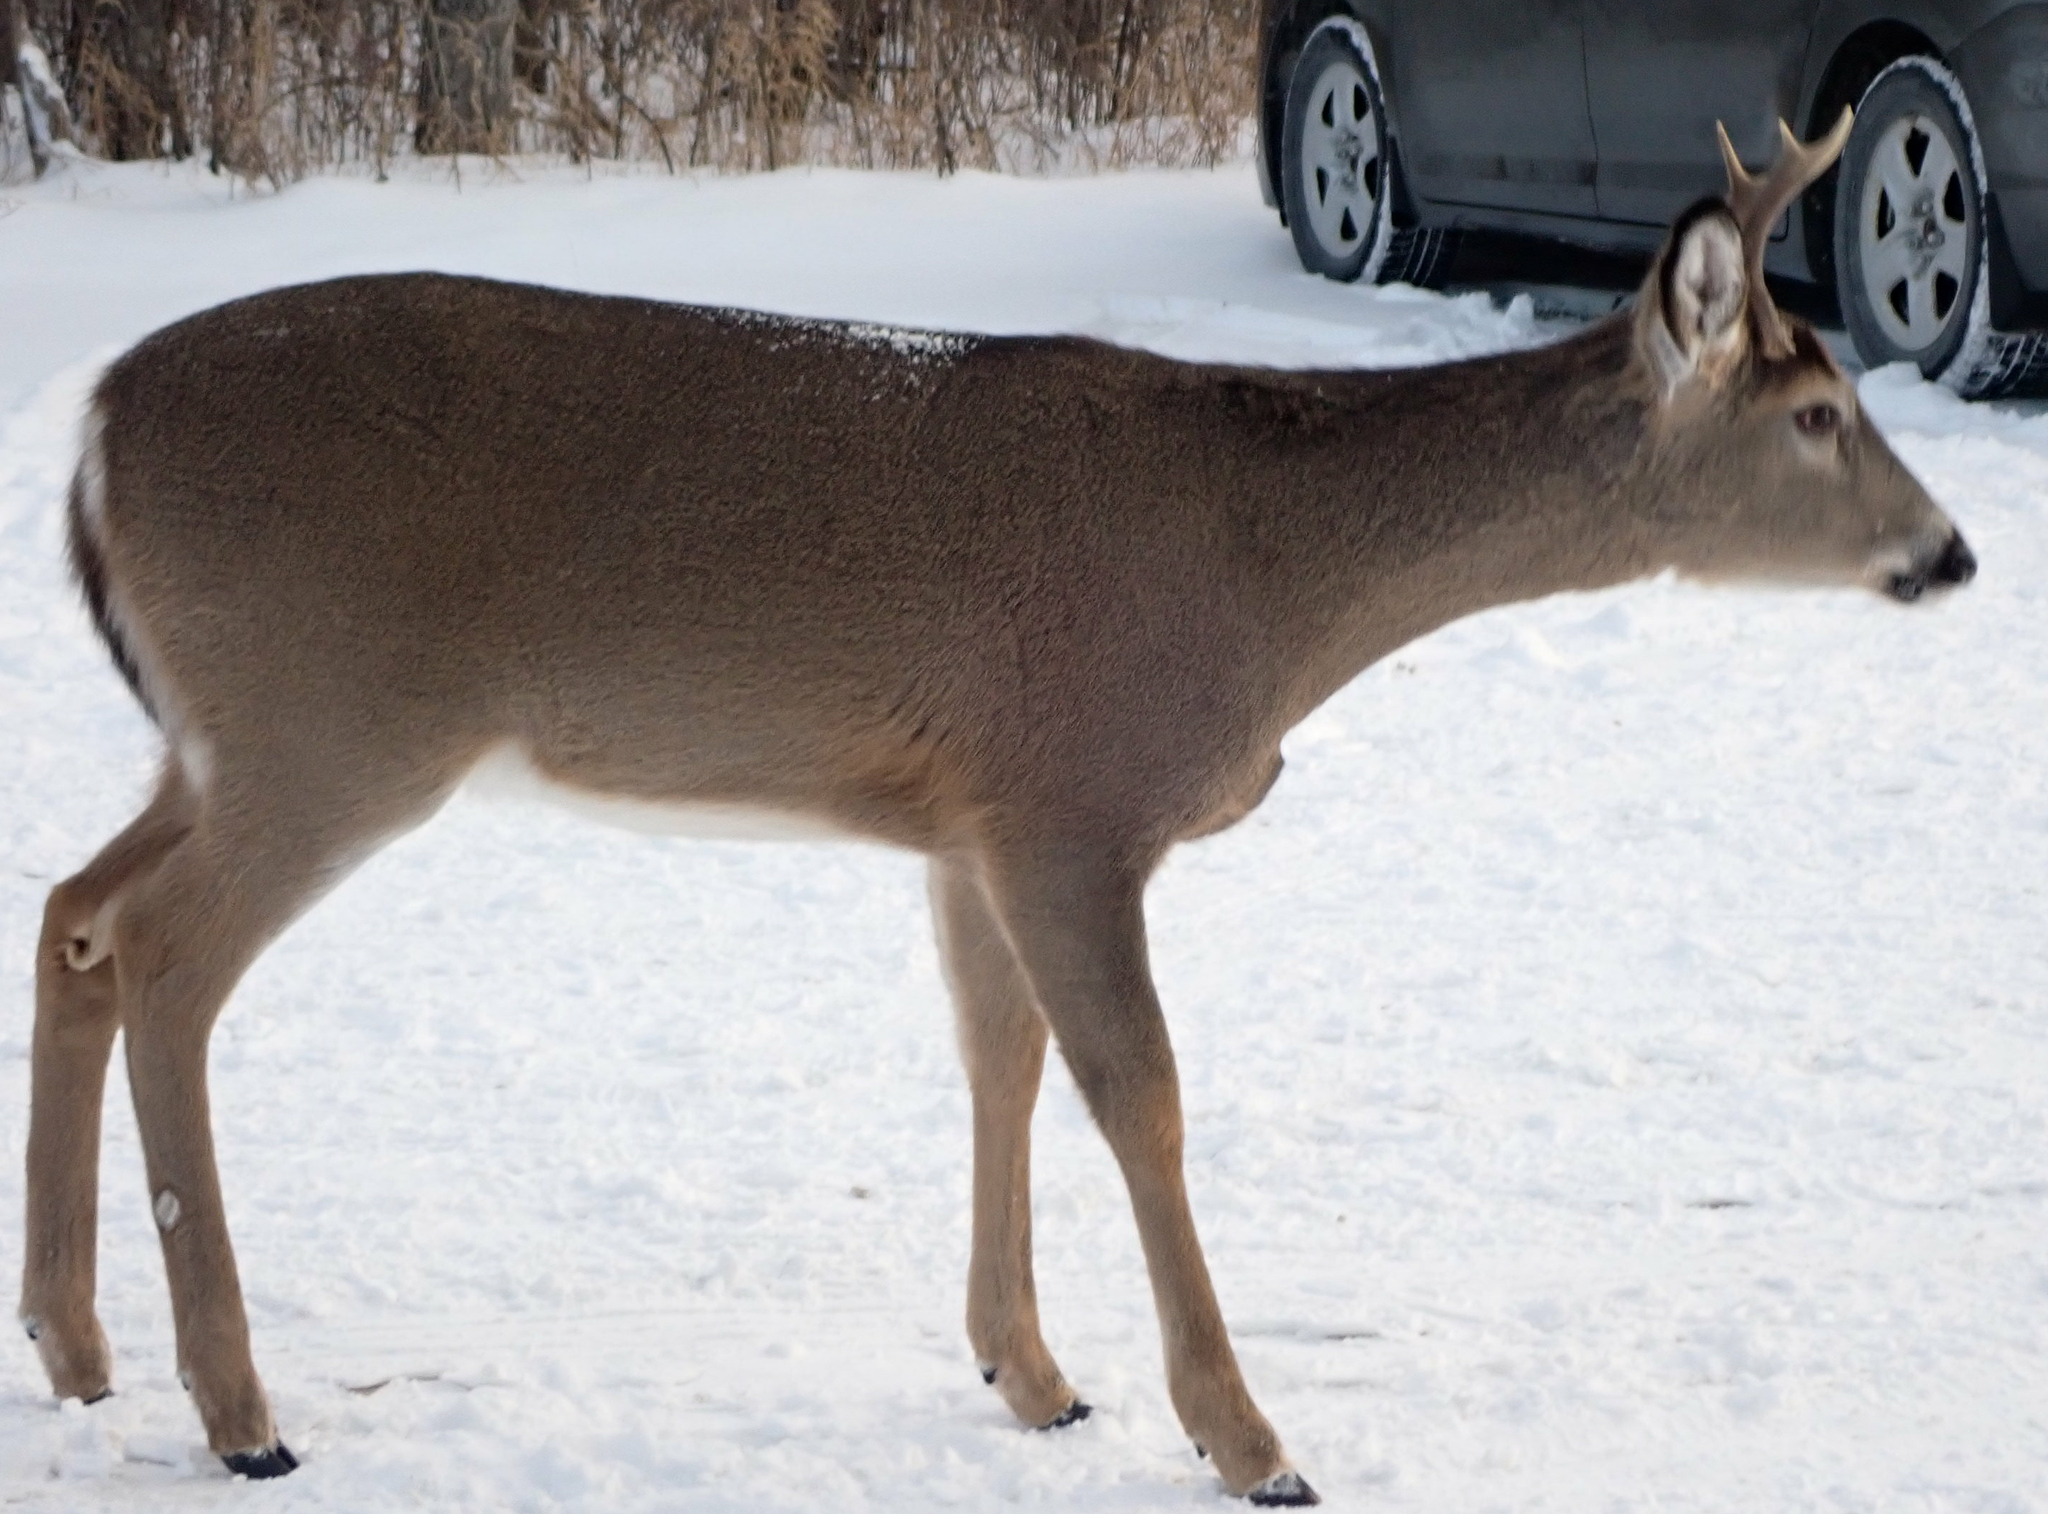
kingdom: Animalia
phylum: Chordata
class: Mammalia
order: Artiodactyla
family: Cervidae
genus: Odocoileus
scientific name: Odocoileus virginianus
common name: White-tailed deer
